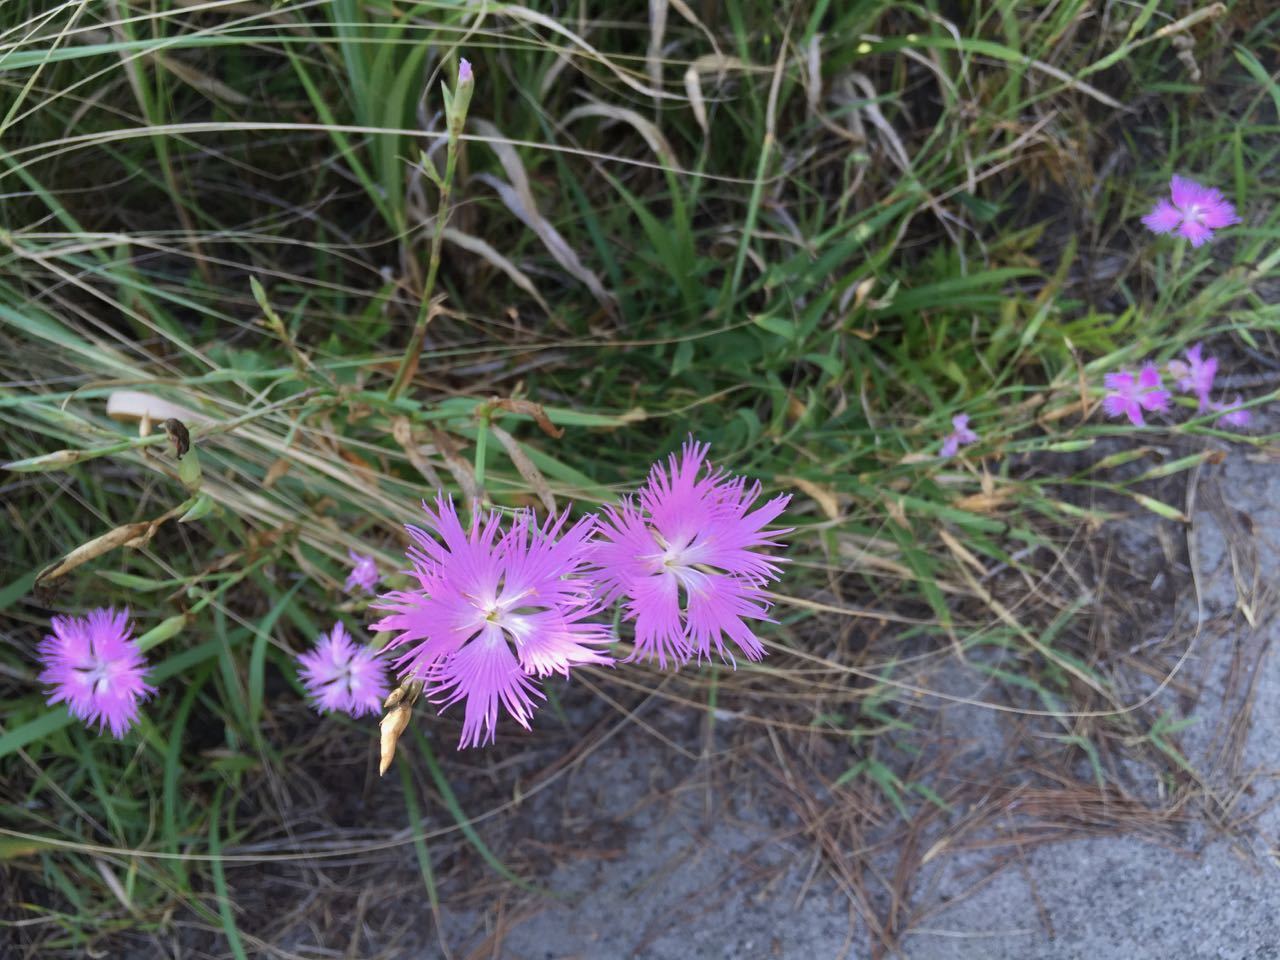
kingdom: Plantae
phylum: Tracheophyta
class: Magnoliopsida
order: Caryophyllales
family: Caryophyllaceae
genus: Dianthus
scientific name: Dianthus longicalyx
